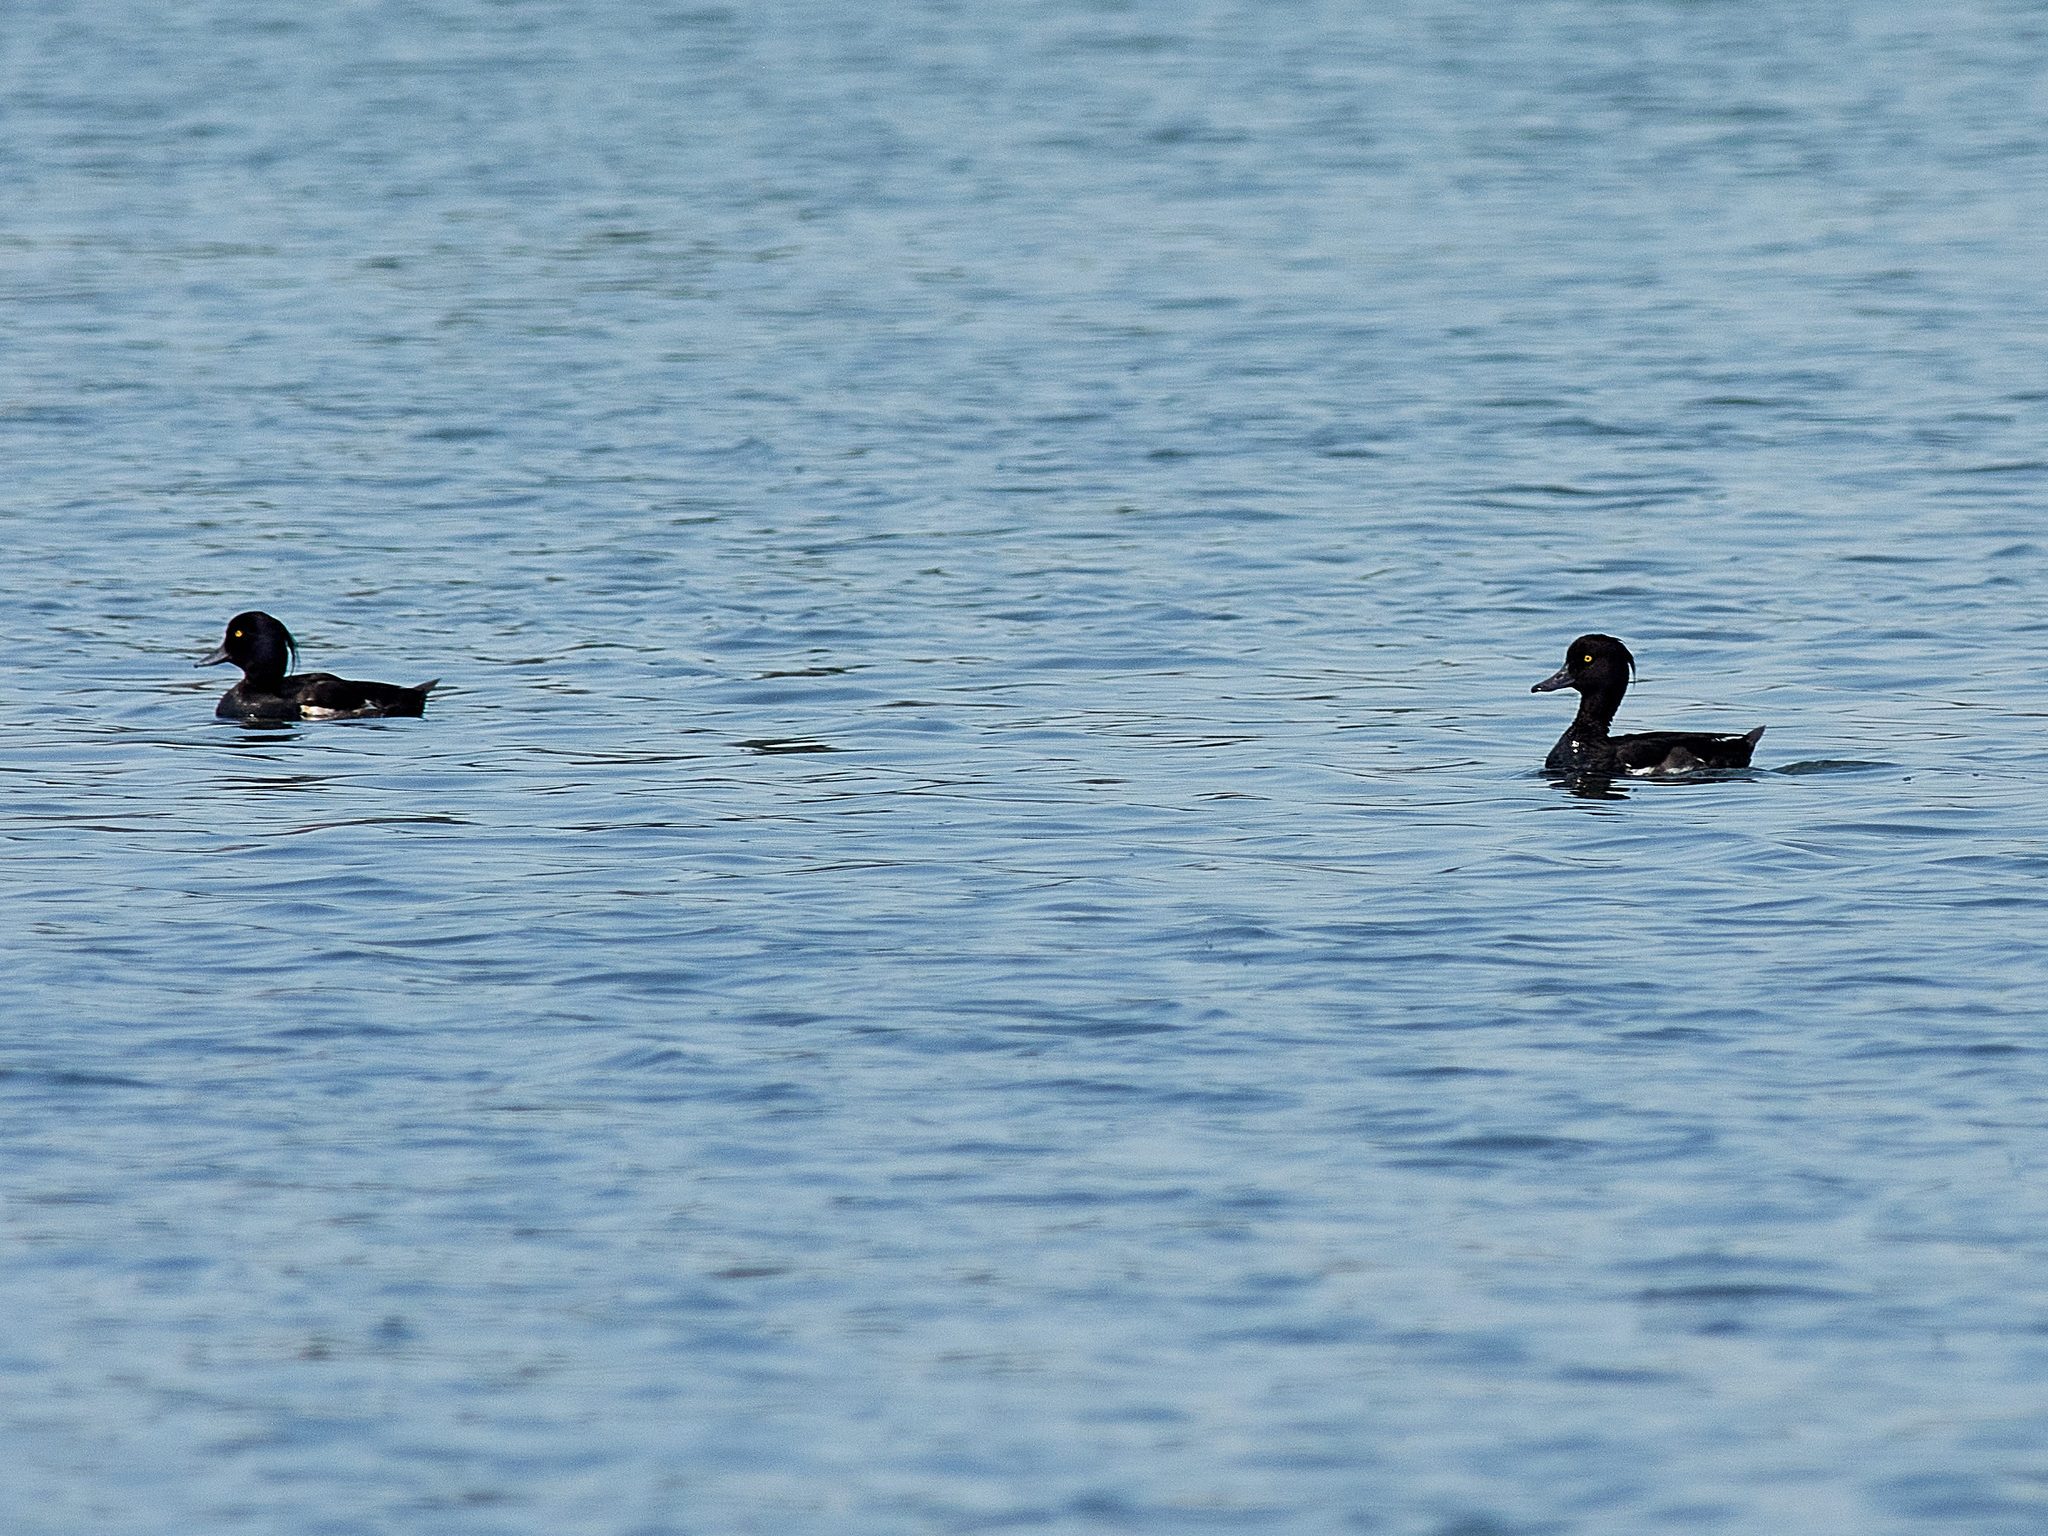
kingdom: Animalia
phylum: Chordata
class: Aves
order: Anseriformes
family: Anatidae
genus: Aythya
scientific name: Aythya fuligula
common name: Tufted duck
